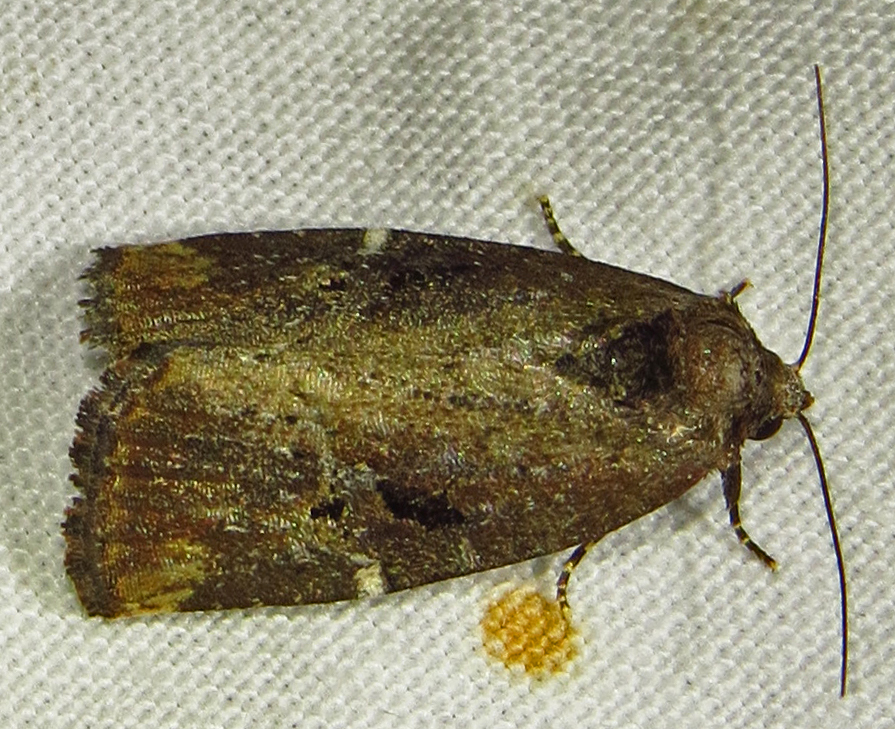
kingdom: Animalia
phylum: Arthropoda
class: Insecta
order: Lepidoptera
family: Noctuidae
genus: Elaphria
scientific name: Elaphria versicolor
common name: Fir harlequin
